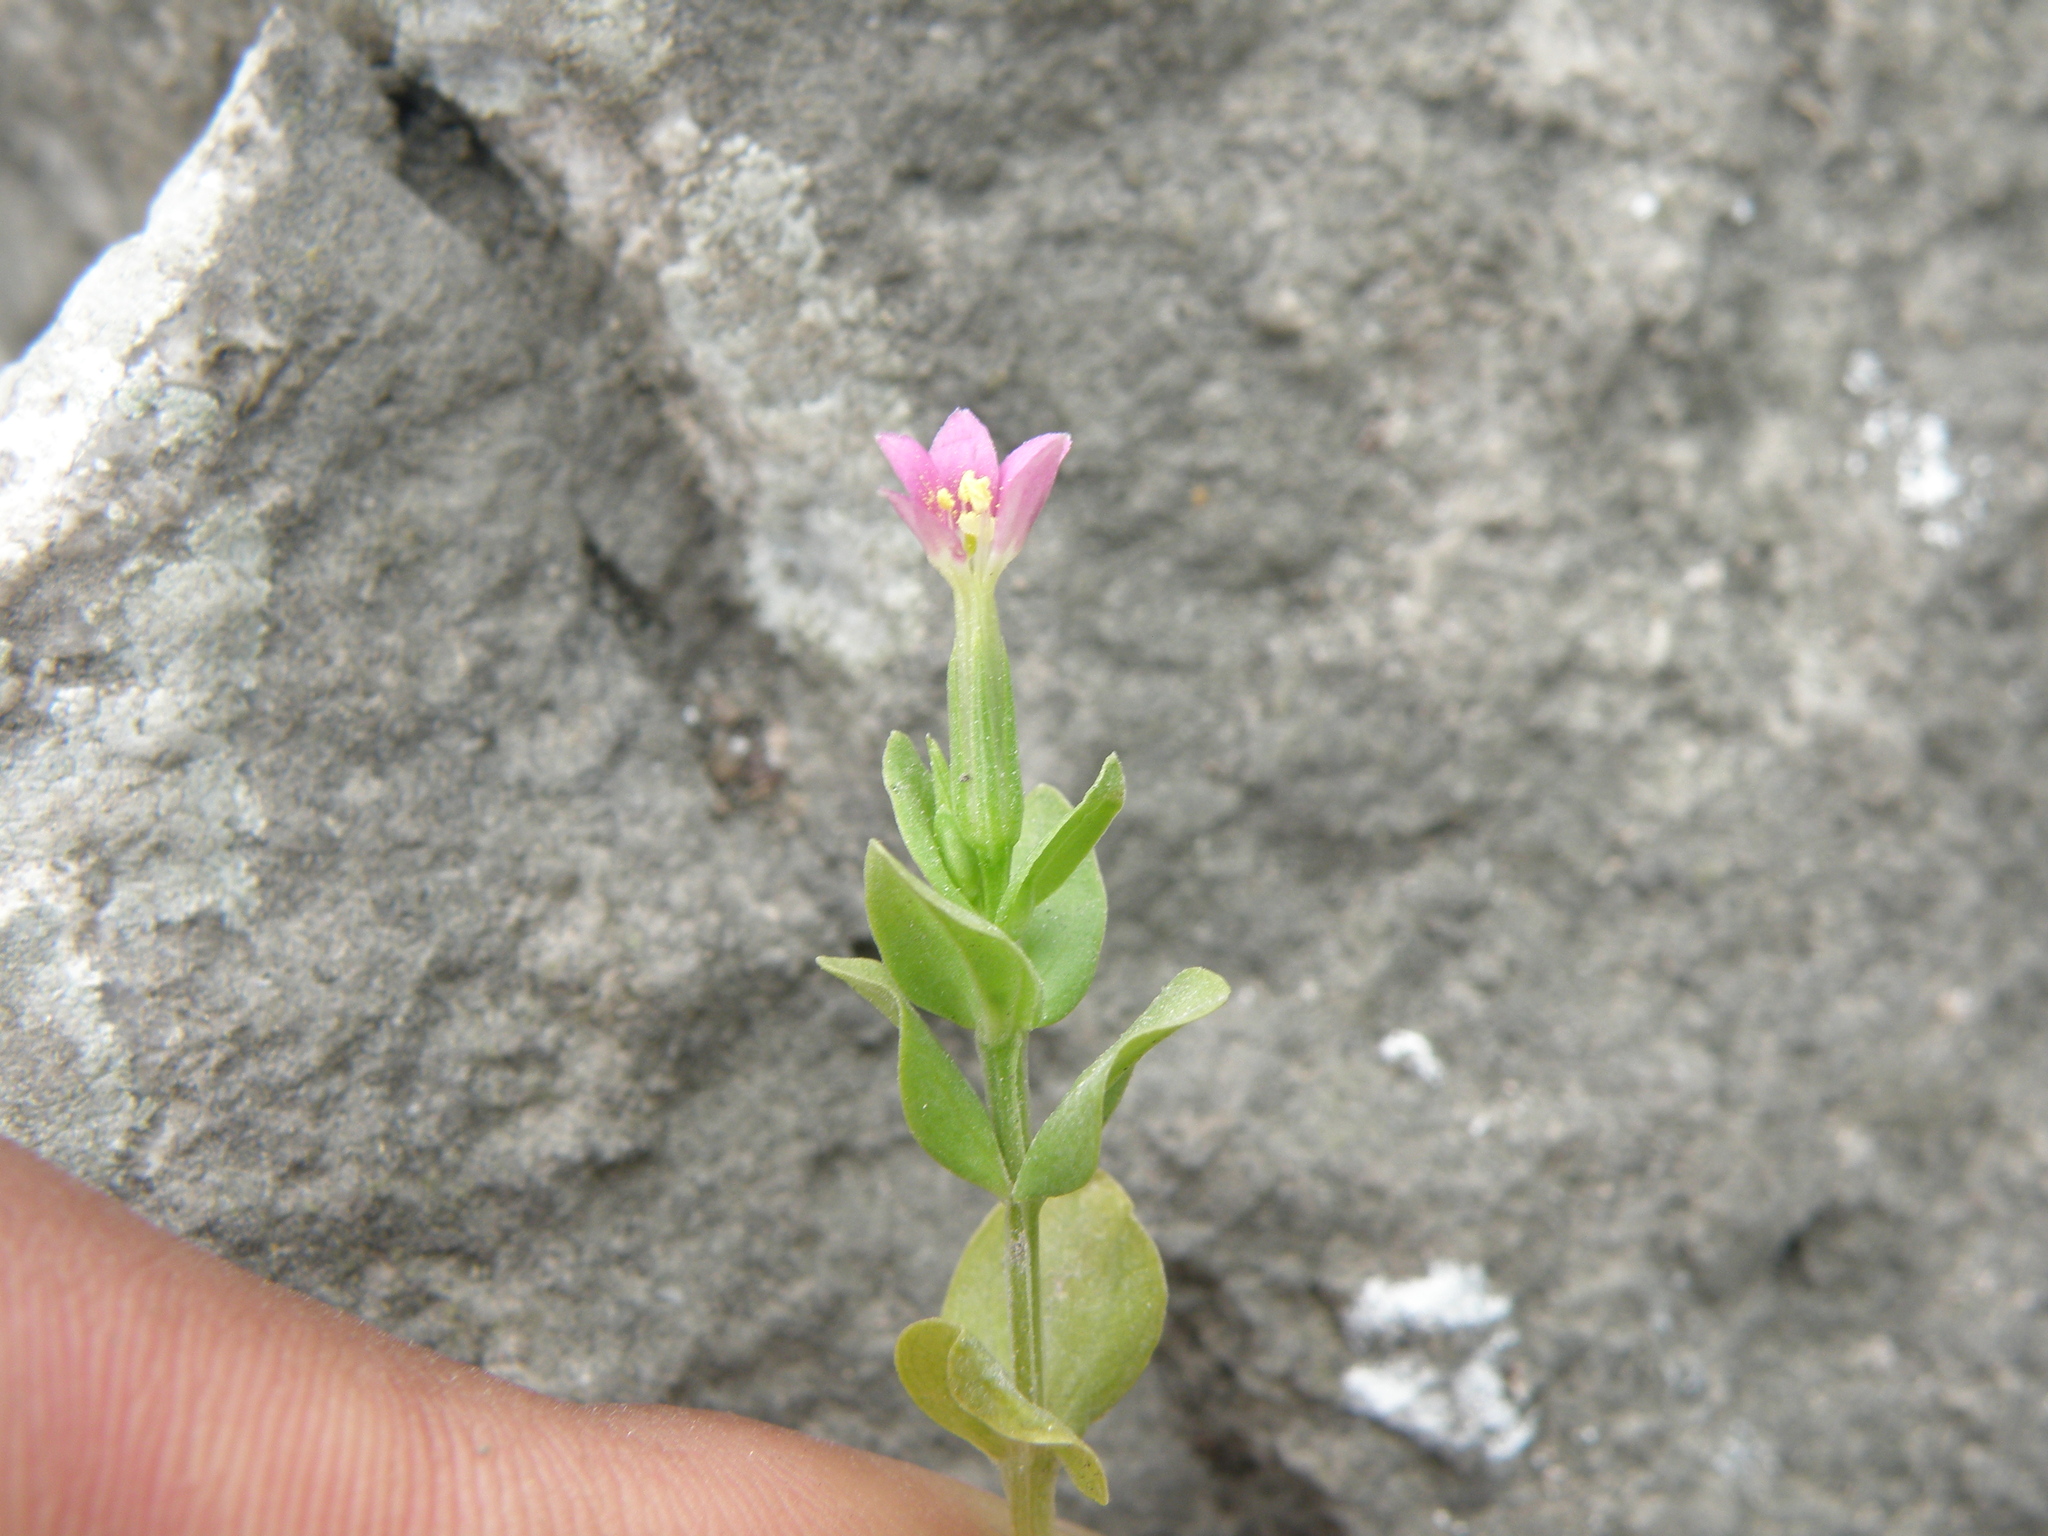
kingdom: Plantae
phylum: Tracheophyta
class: Magnoliopsida
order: Gentianales
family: Gentianaceae
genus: Centaurium
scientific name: Centaurium erythraea
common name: Common centaury
